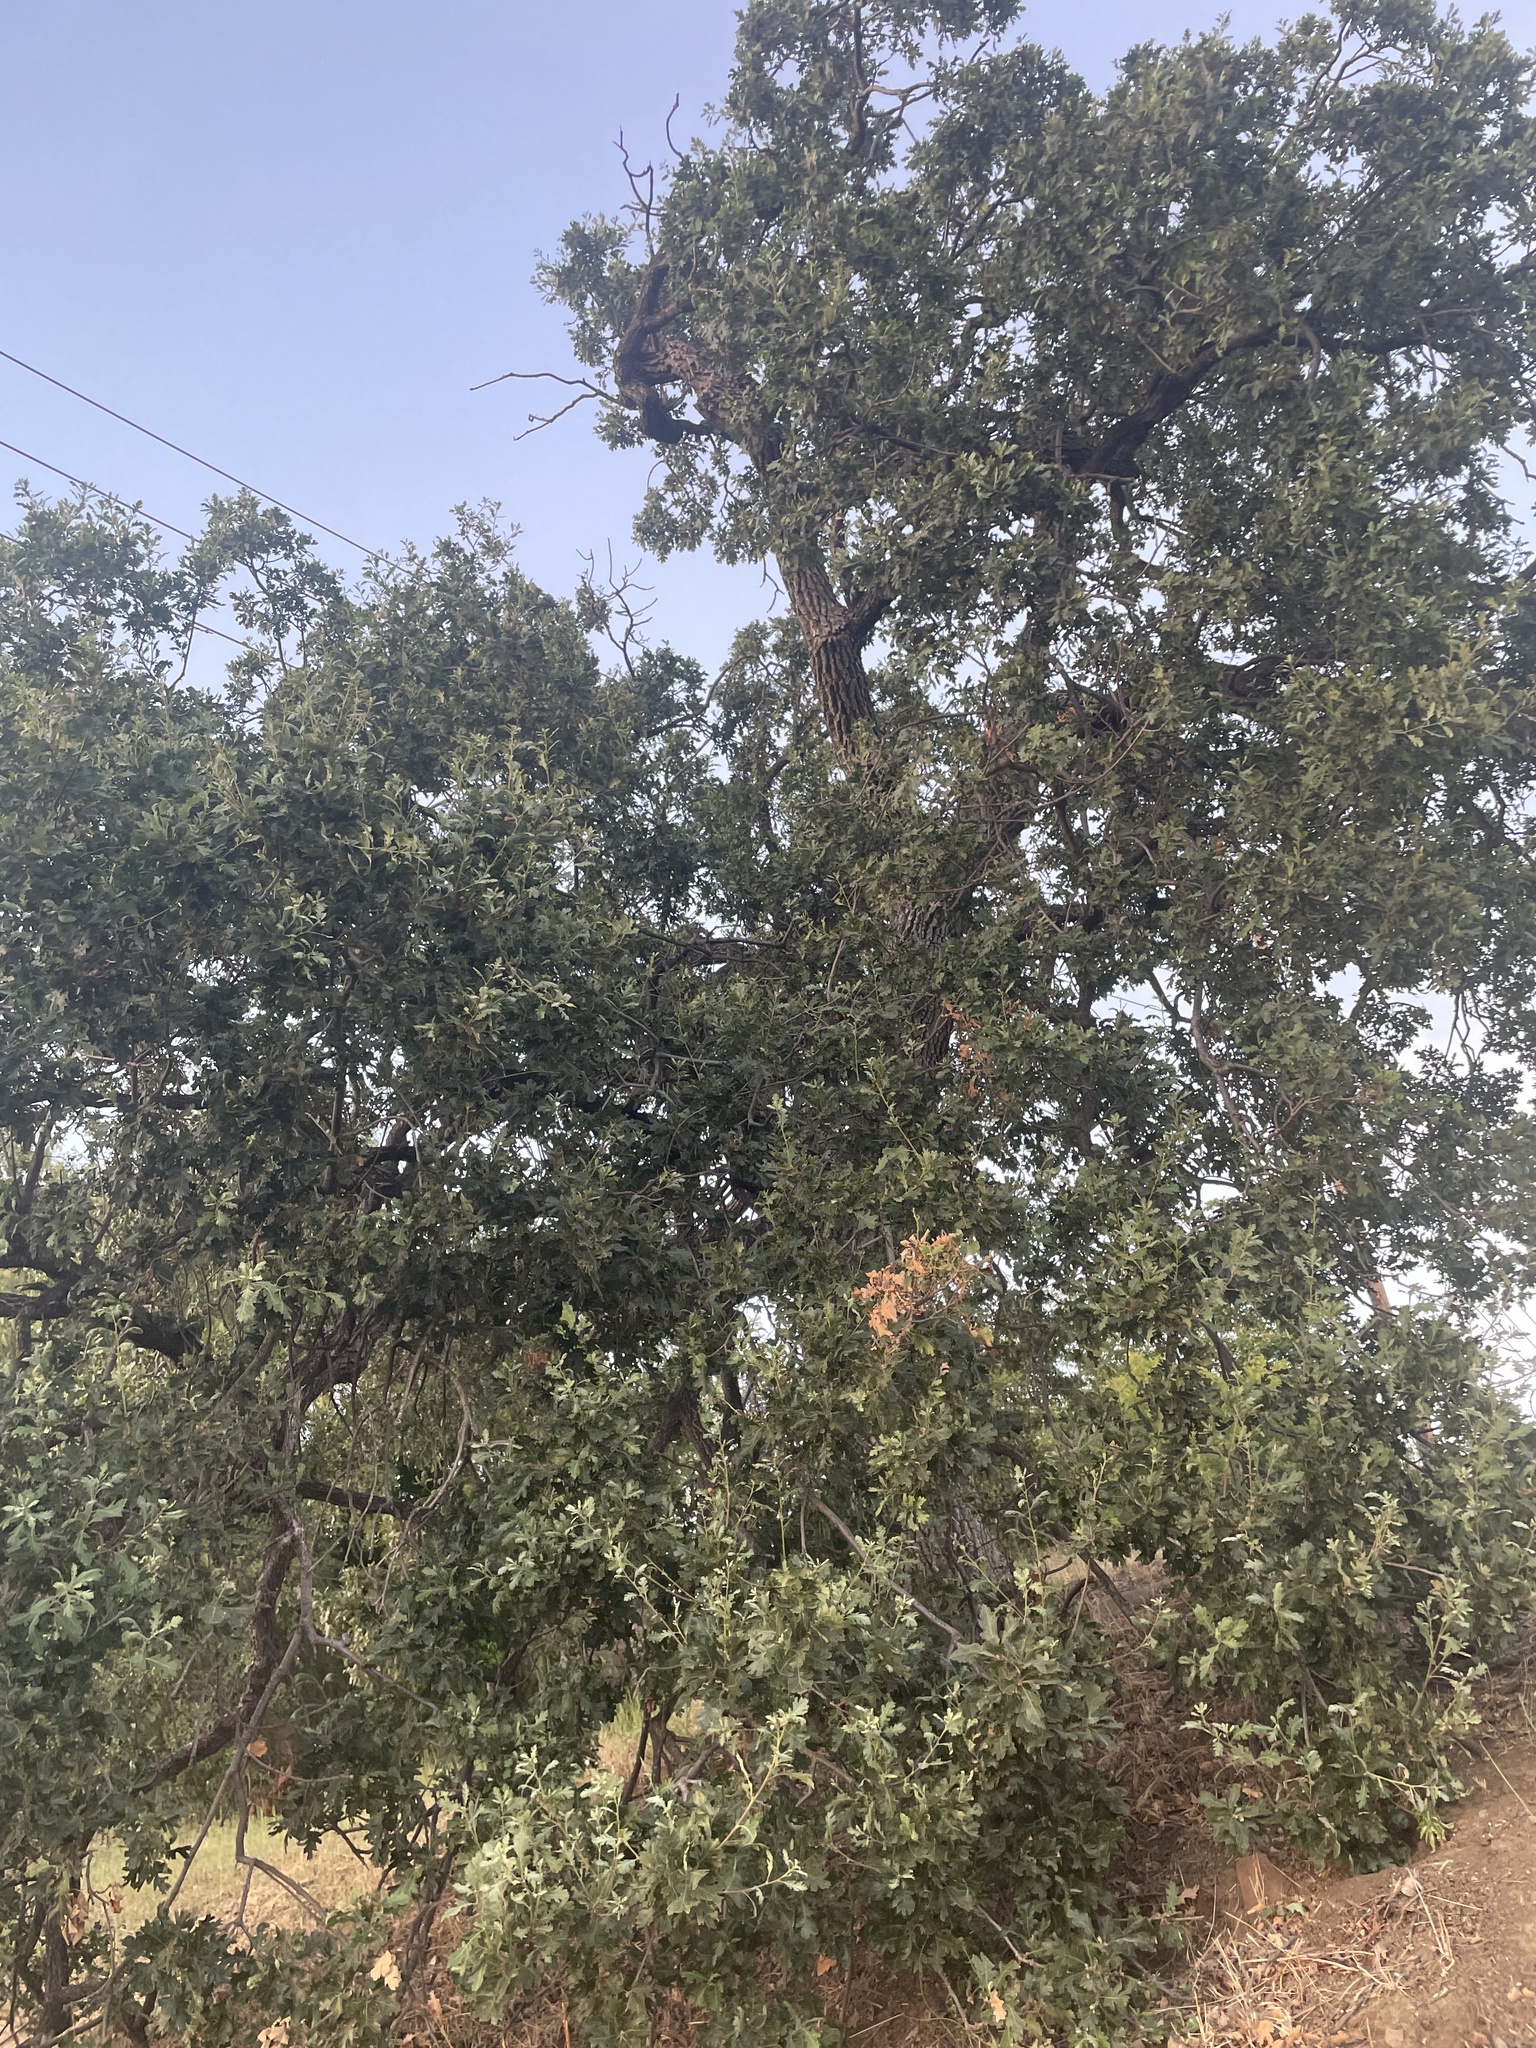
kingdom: Plantae
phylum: Tracheophyta
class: Magnoliopsida
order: Fagales
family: Fagaceae
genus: Quercus
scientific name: Quercus lobata
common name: Valley oak
